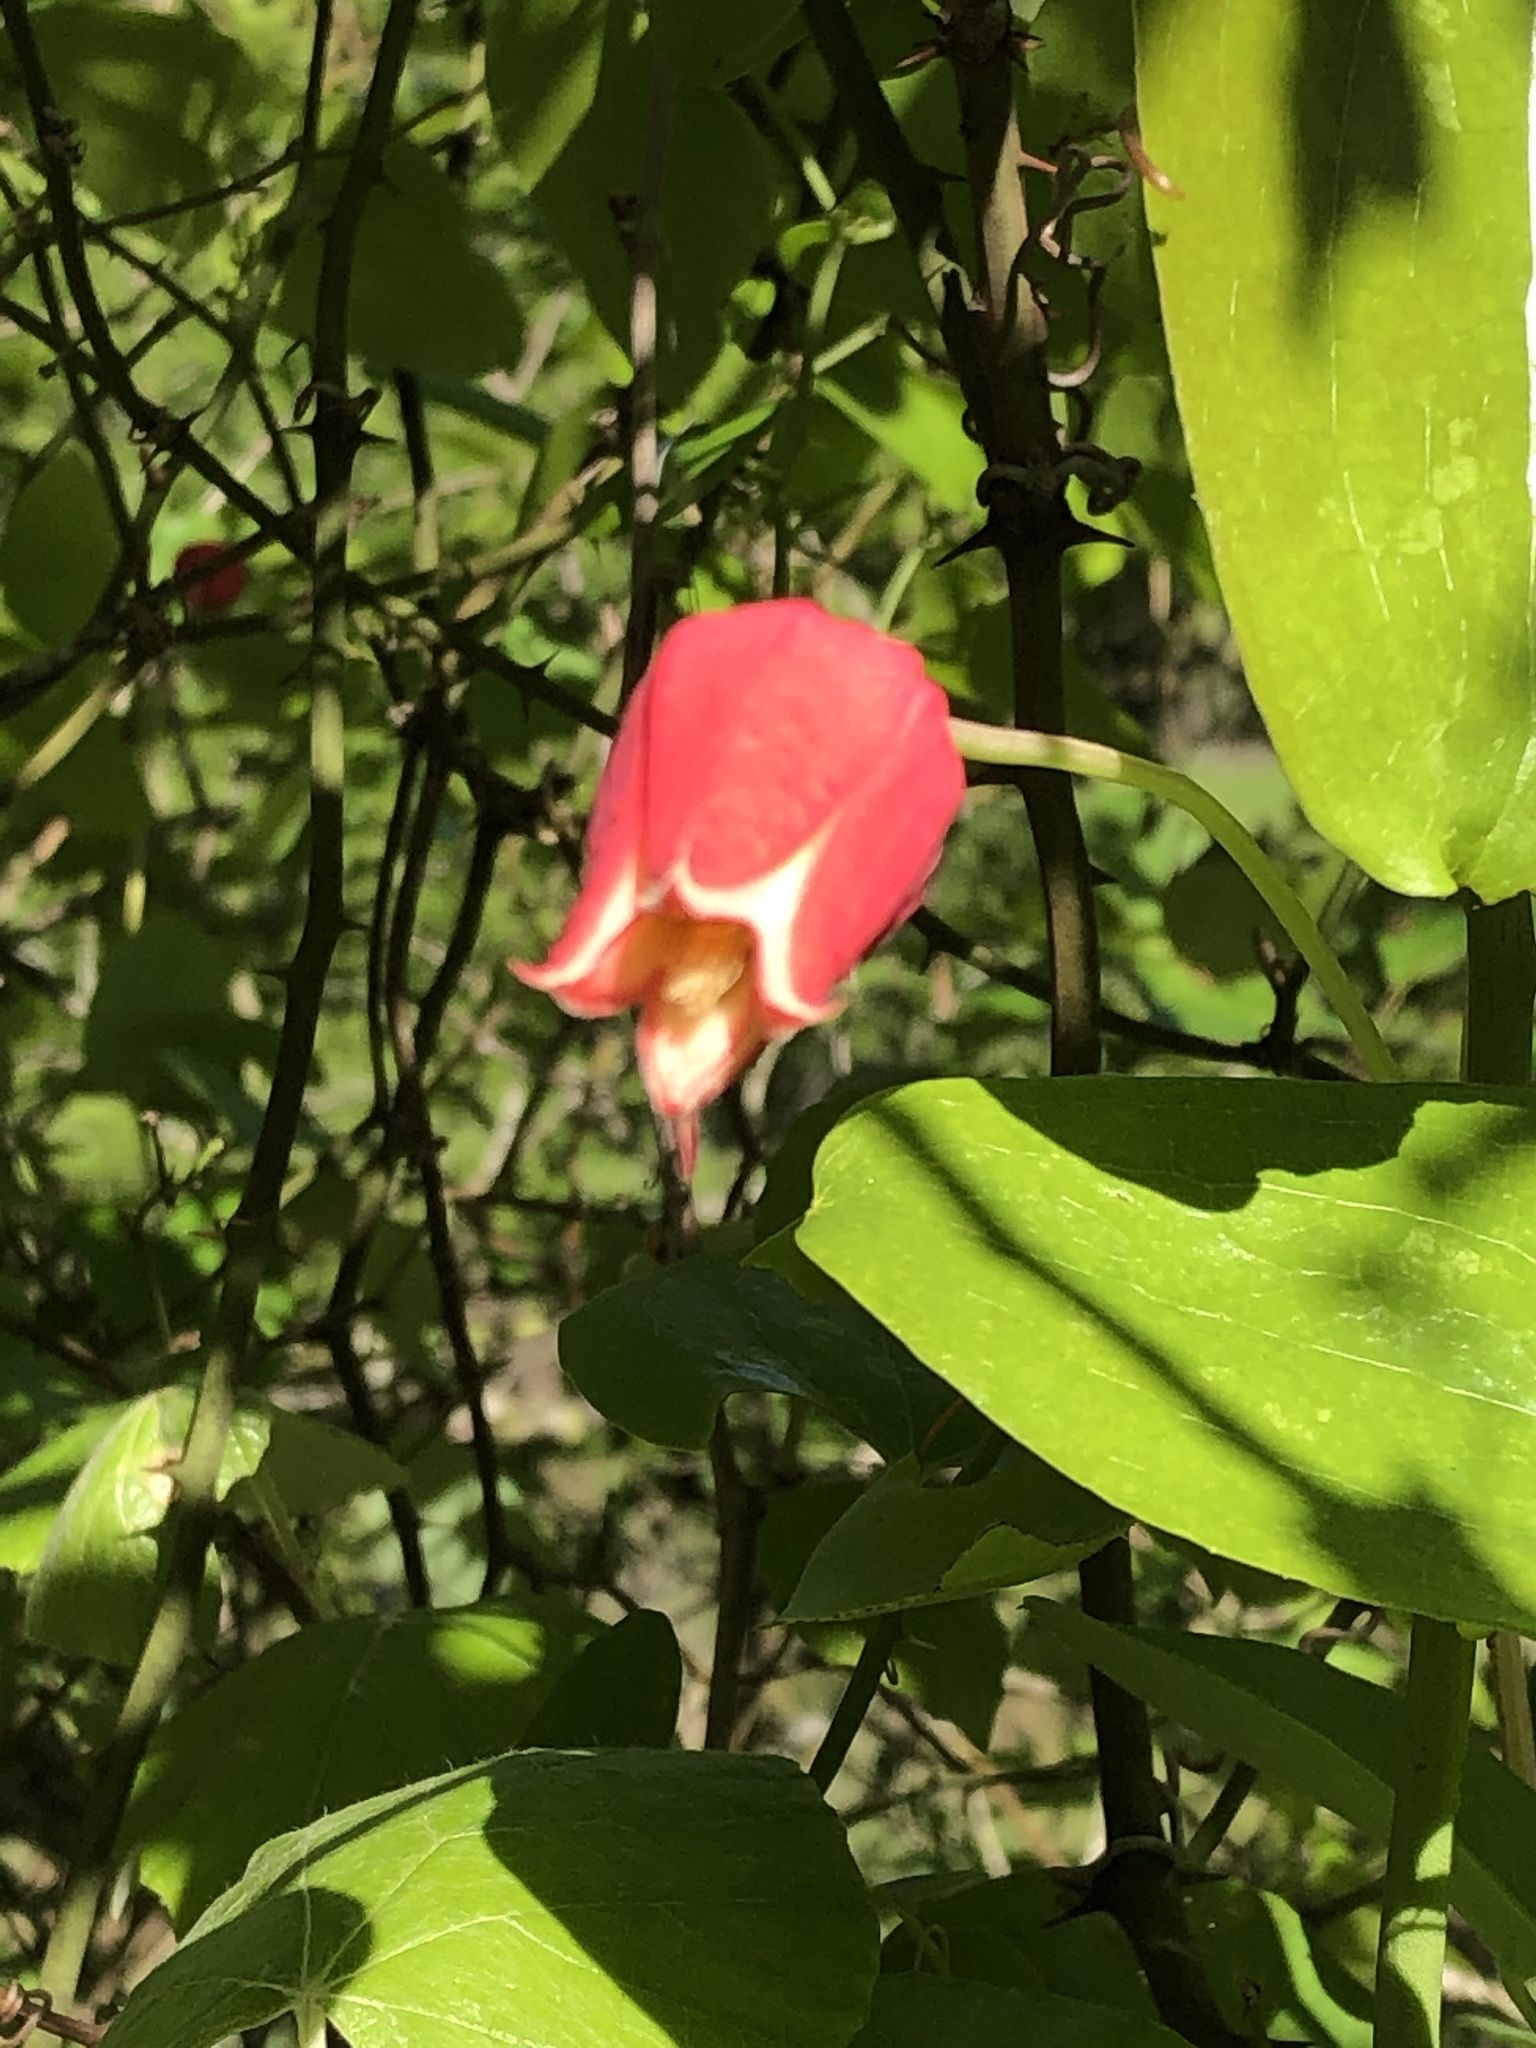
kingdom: Plantae
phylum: Tracheophyta
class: Magnoliopsida
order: Ranunculales
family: Ranunculaceae
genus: Clematis
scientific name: Clematis texensis
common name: Crimson clematis
